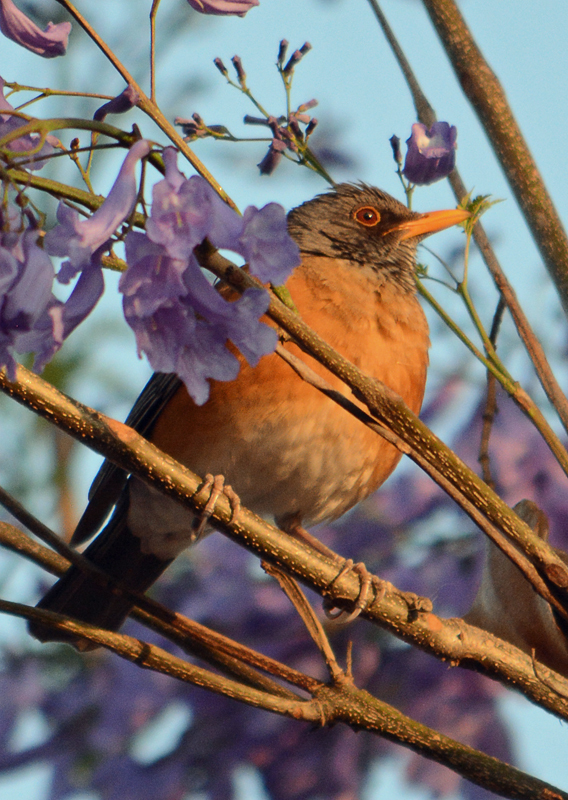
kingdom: Animalia
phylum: Chordata
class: Aves
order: Passeriformes
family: Turdidae
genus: Turdus
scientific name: Turdus rufopalliatus
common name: Rufous-backed robin
